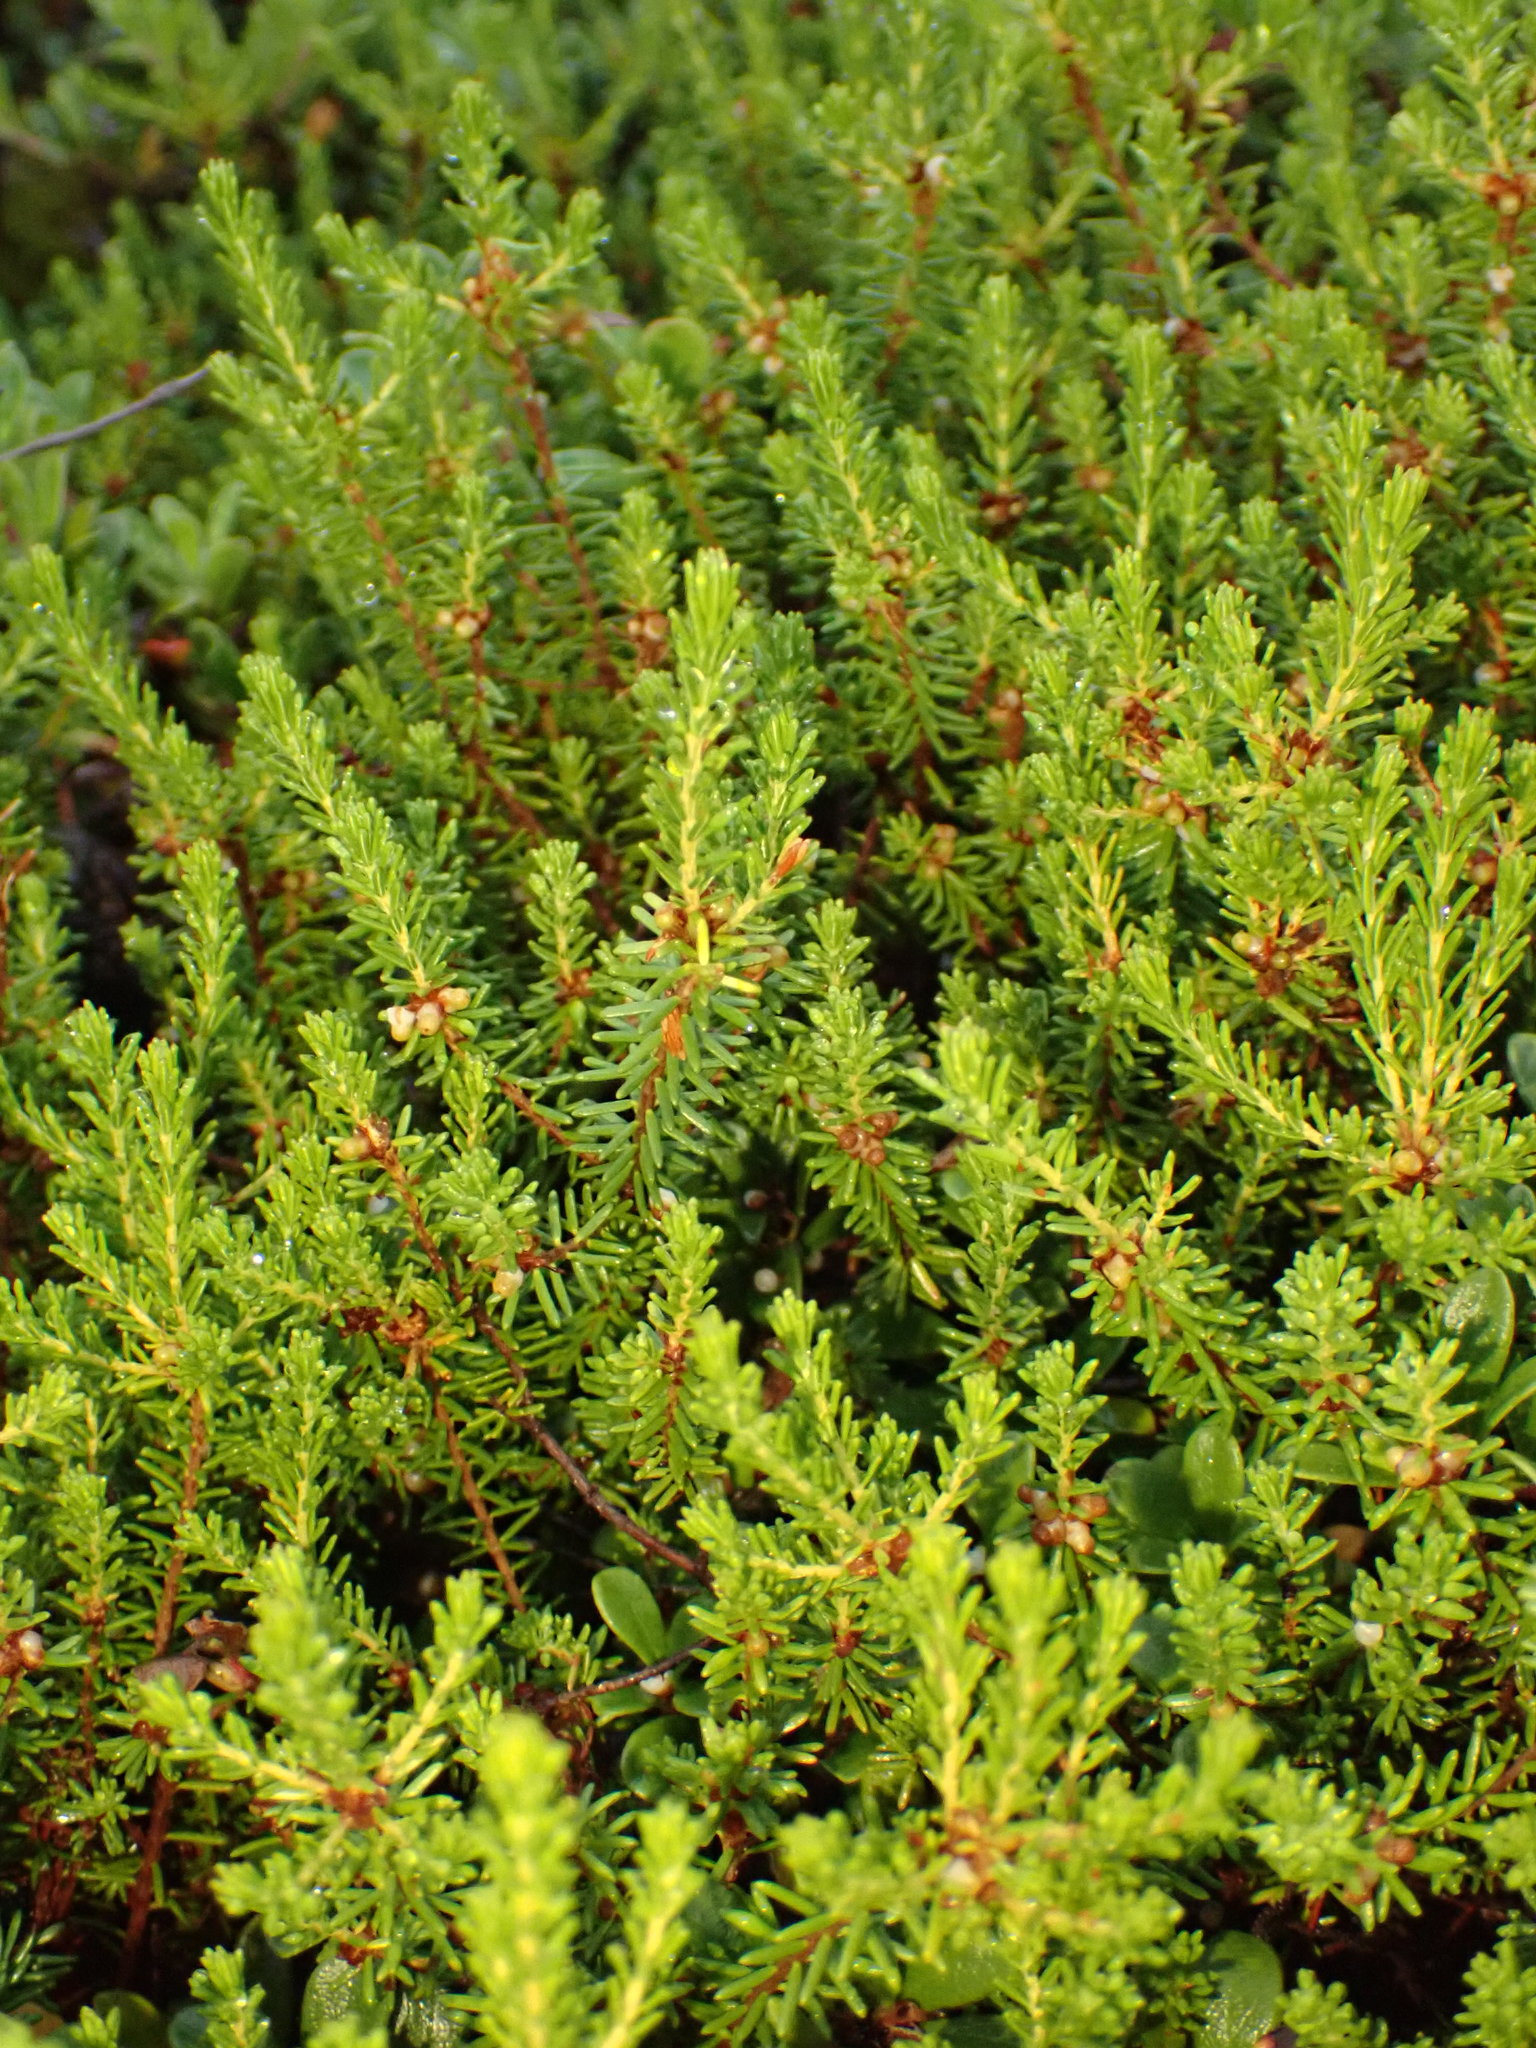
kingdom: Plantae
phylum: Tracheophyta
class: Magnoliopsida
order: Ericales
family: Ericaceae
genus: Corema
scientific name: Corema conradii
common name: Broom-crowberry
